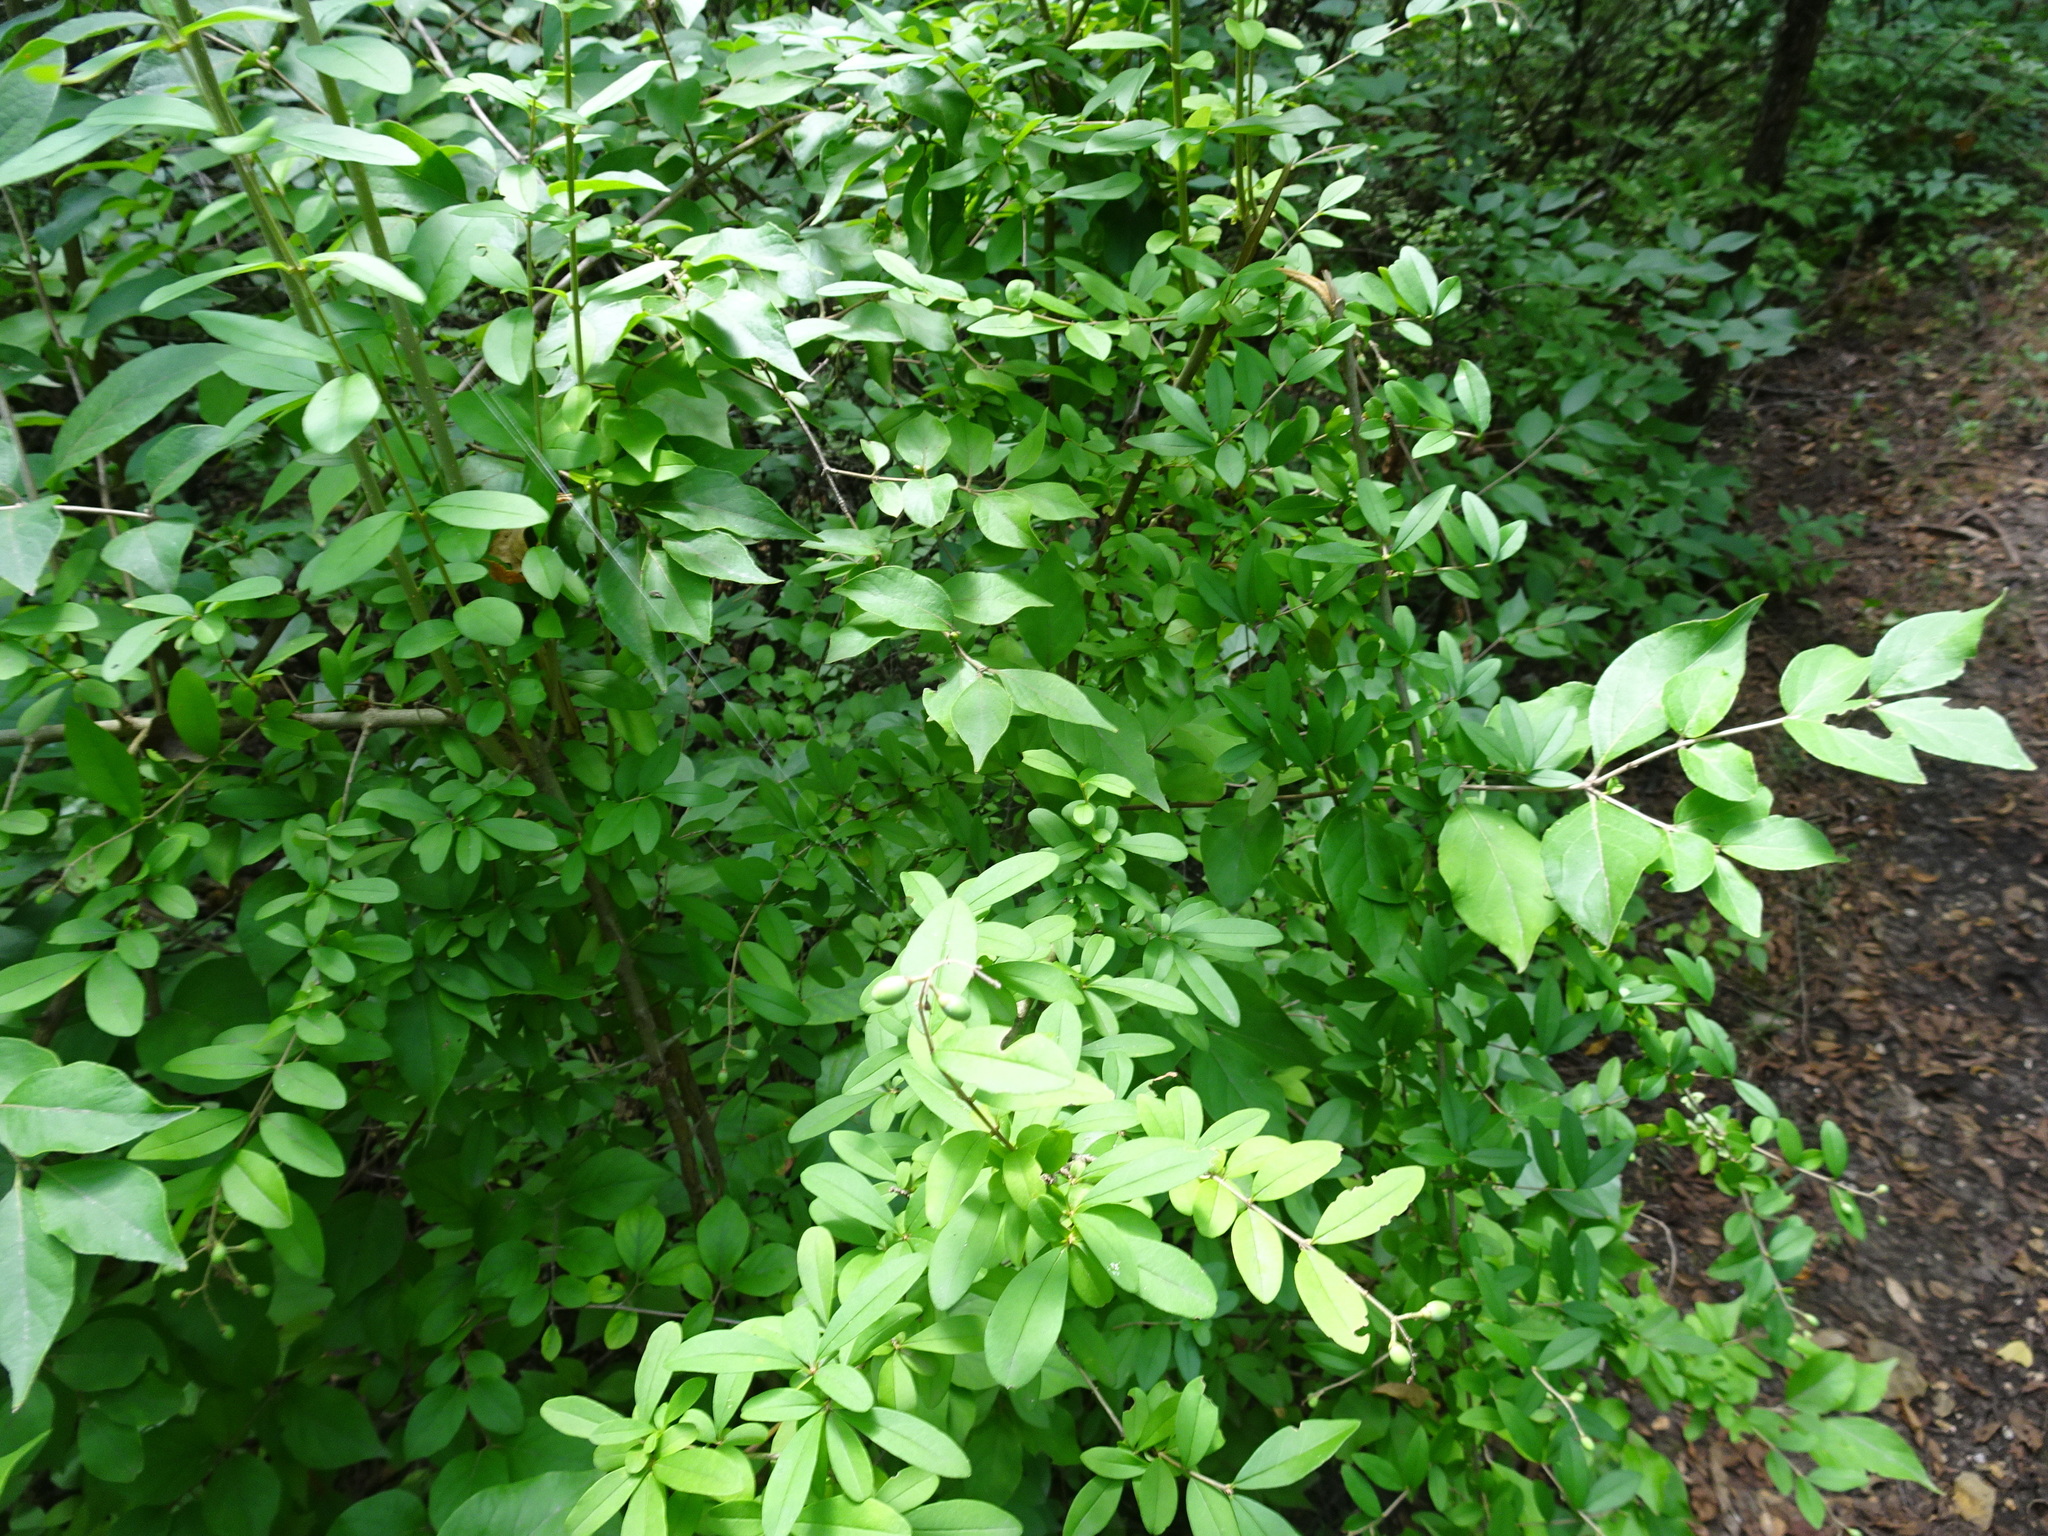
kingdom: Plantae
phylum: Tracheophyta
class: Magnoliopsida
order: Lamiales
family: Oleaceae
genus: Ligustrum
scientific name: Ligustrum obtusifolium
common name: Border privet
